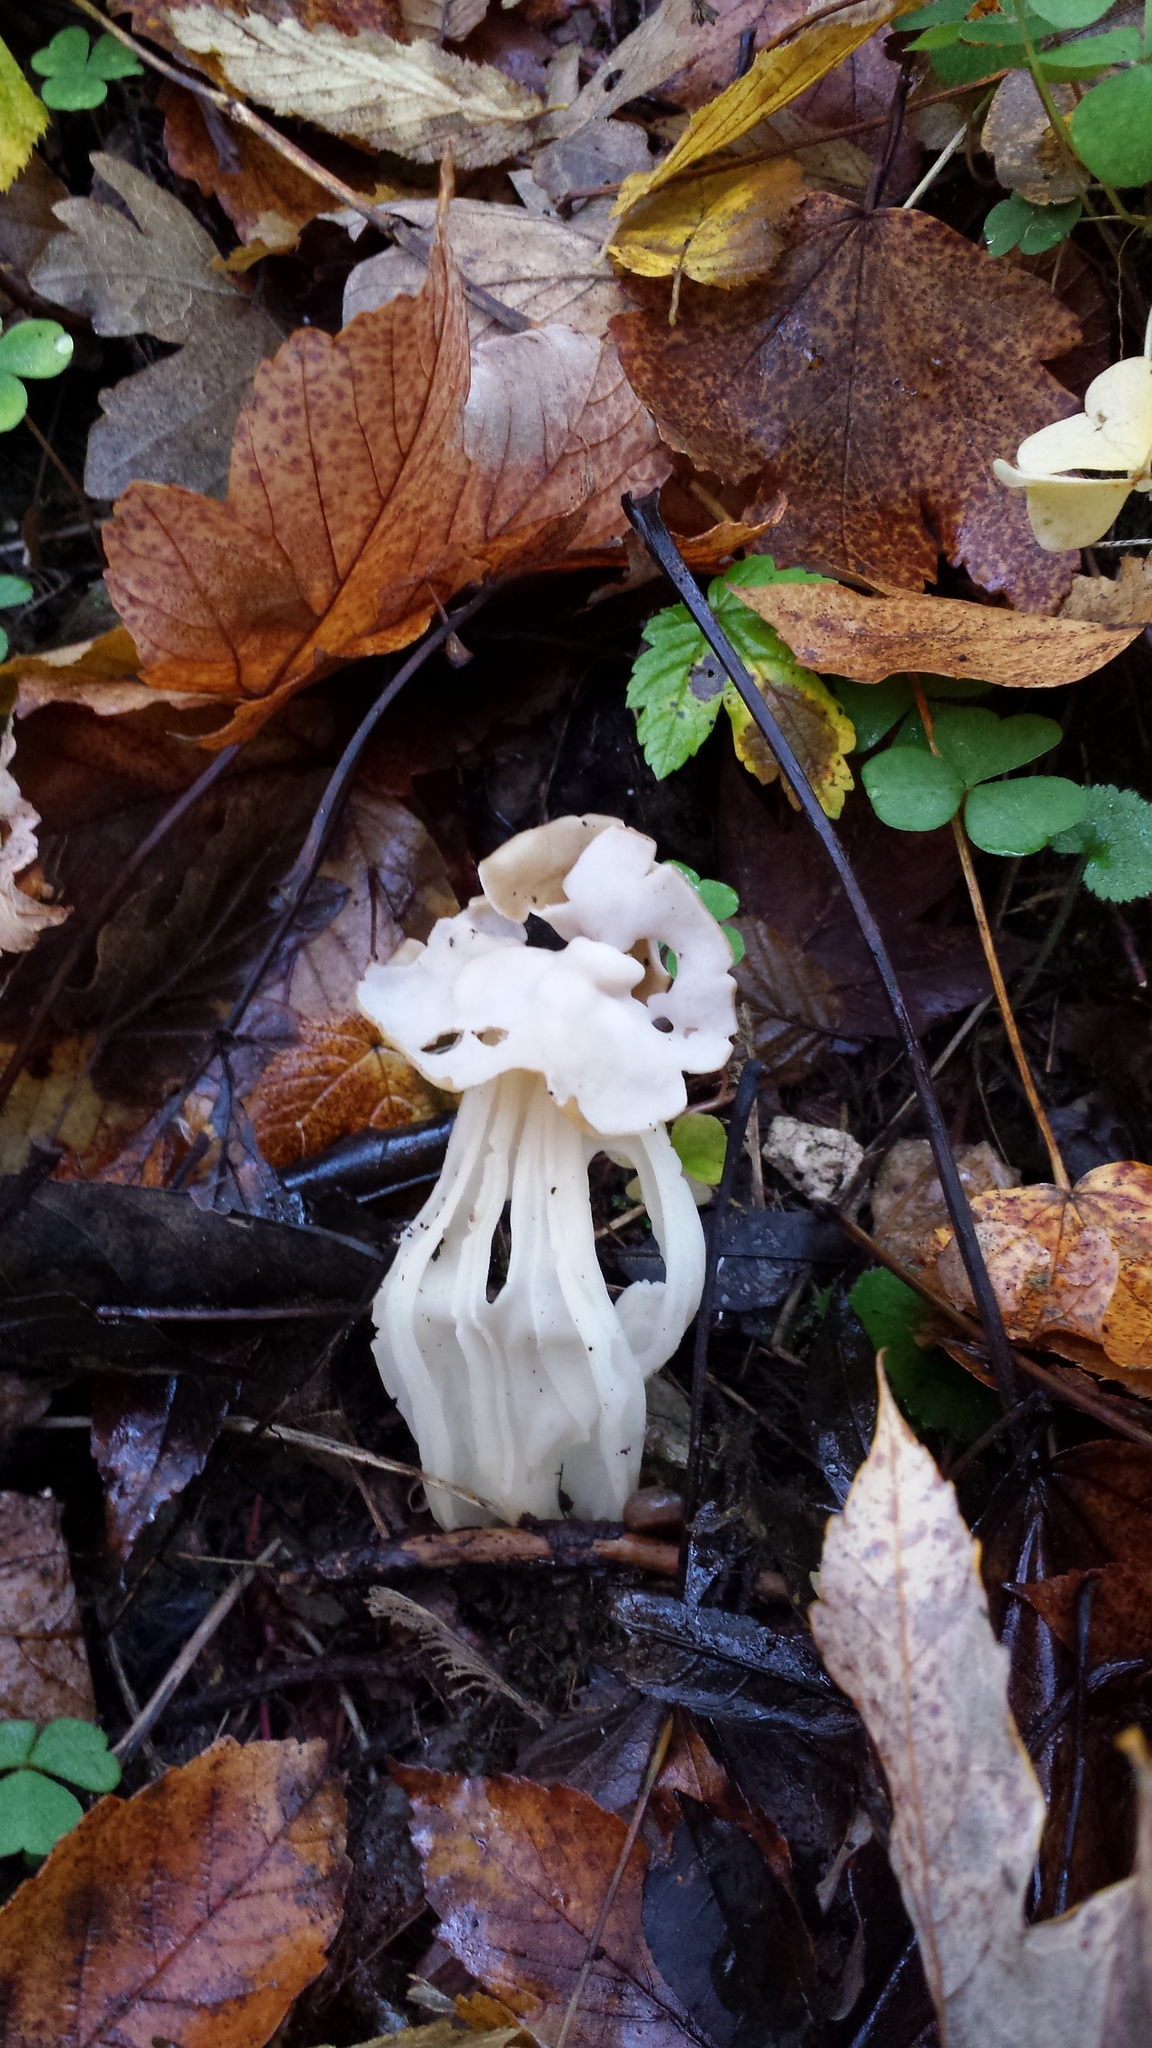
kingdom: Fungi
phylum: Ascomycota
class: Pezizomycetes
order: Pezizales
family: Helvellaceae
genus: Helvella
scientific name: Helvella crispa
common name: White saddle
